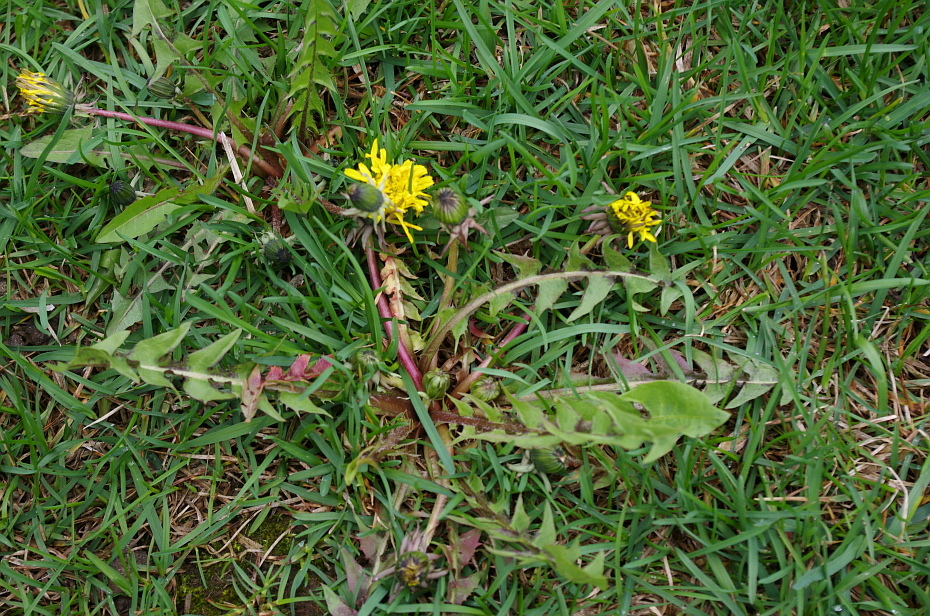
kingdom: Plantae
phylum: Tracheophyta
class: Magnoliopsida
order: Asterales
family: Asteraceae
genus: Taraxacum
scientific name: Taraxacum officinale
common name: Common dandelion
